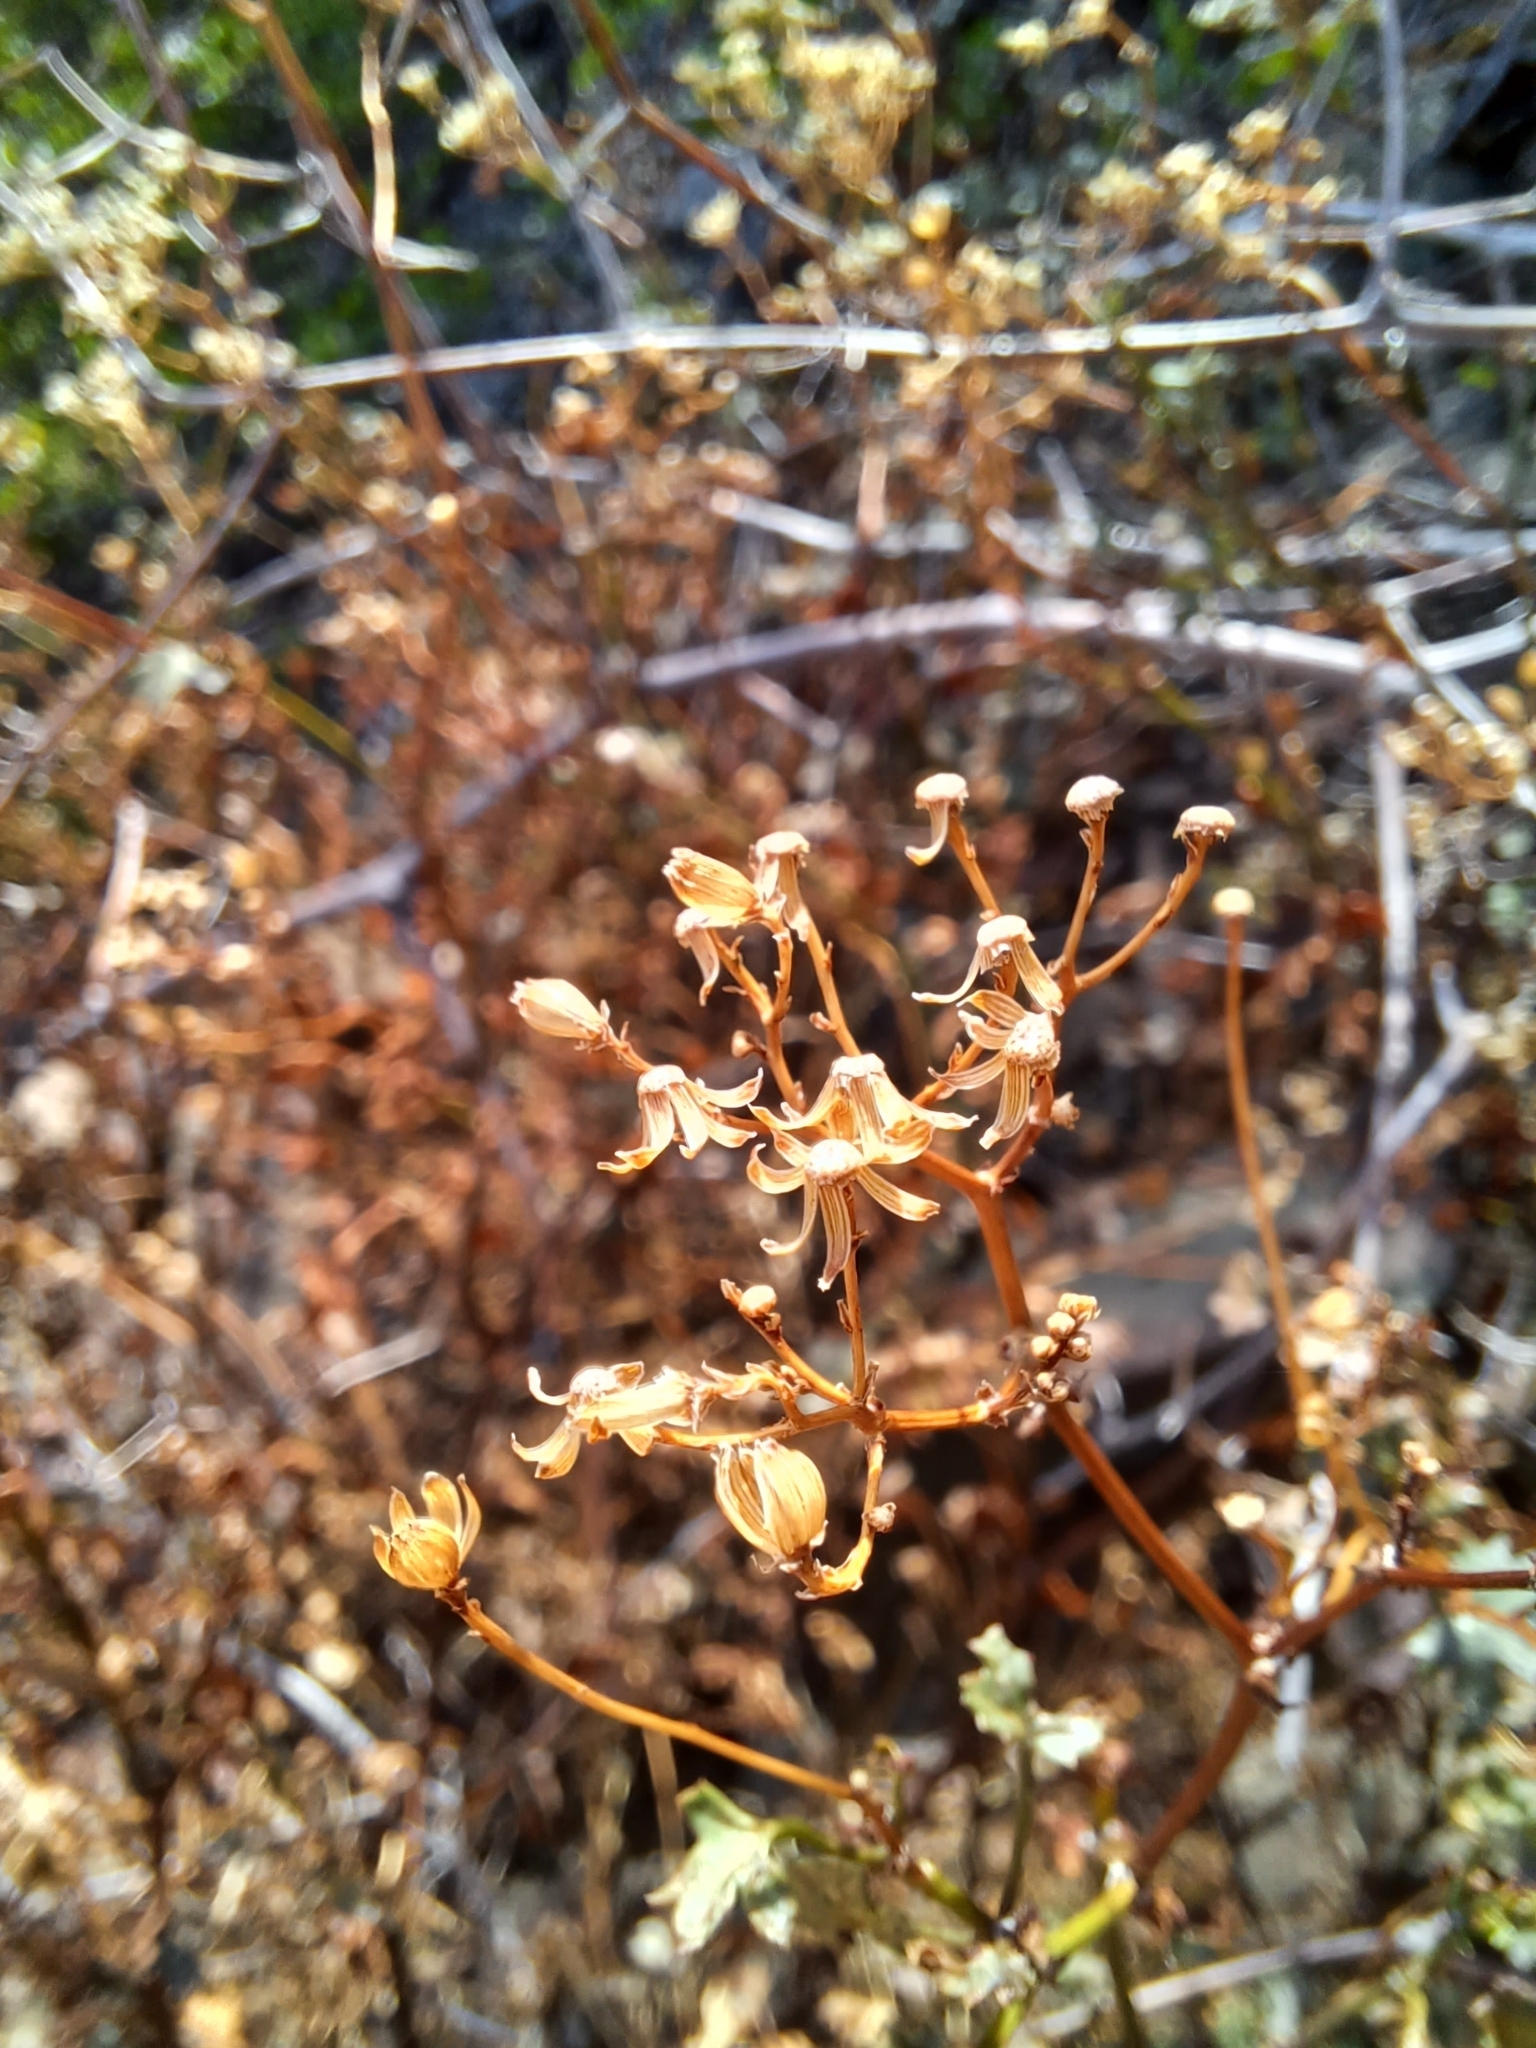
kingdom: Plantae
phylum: Tracheophyta
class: Magnoliopsida
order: Asterales
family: Asteraceae
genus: Cineraria
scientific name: Cineraria lobata
